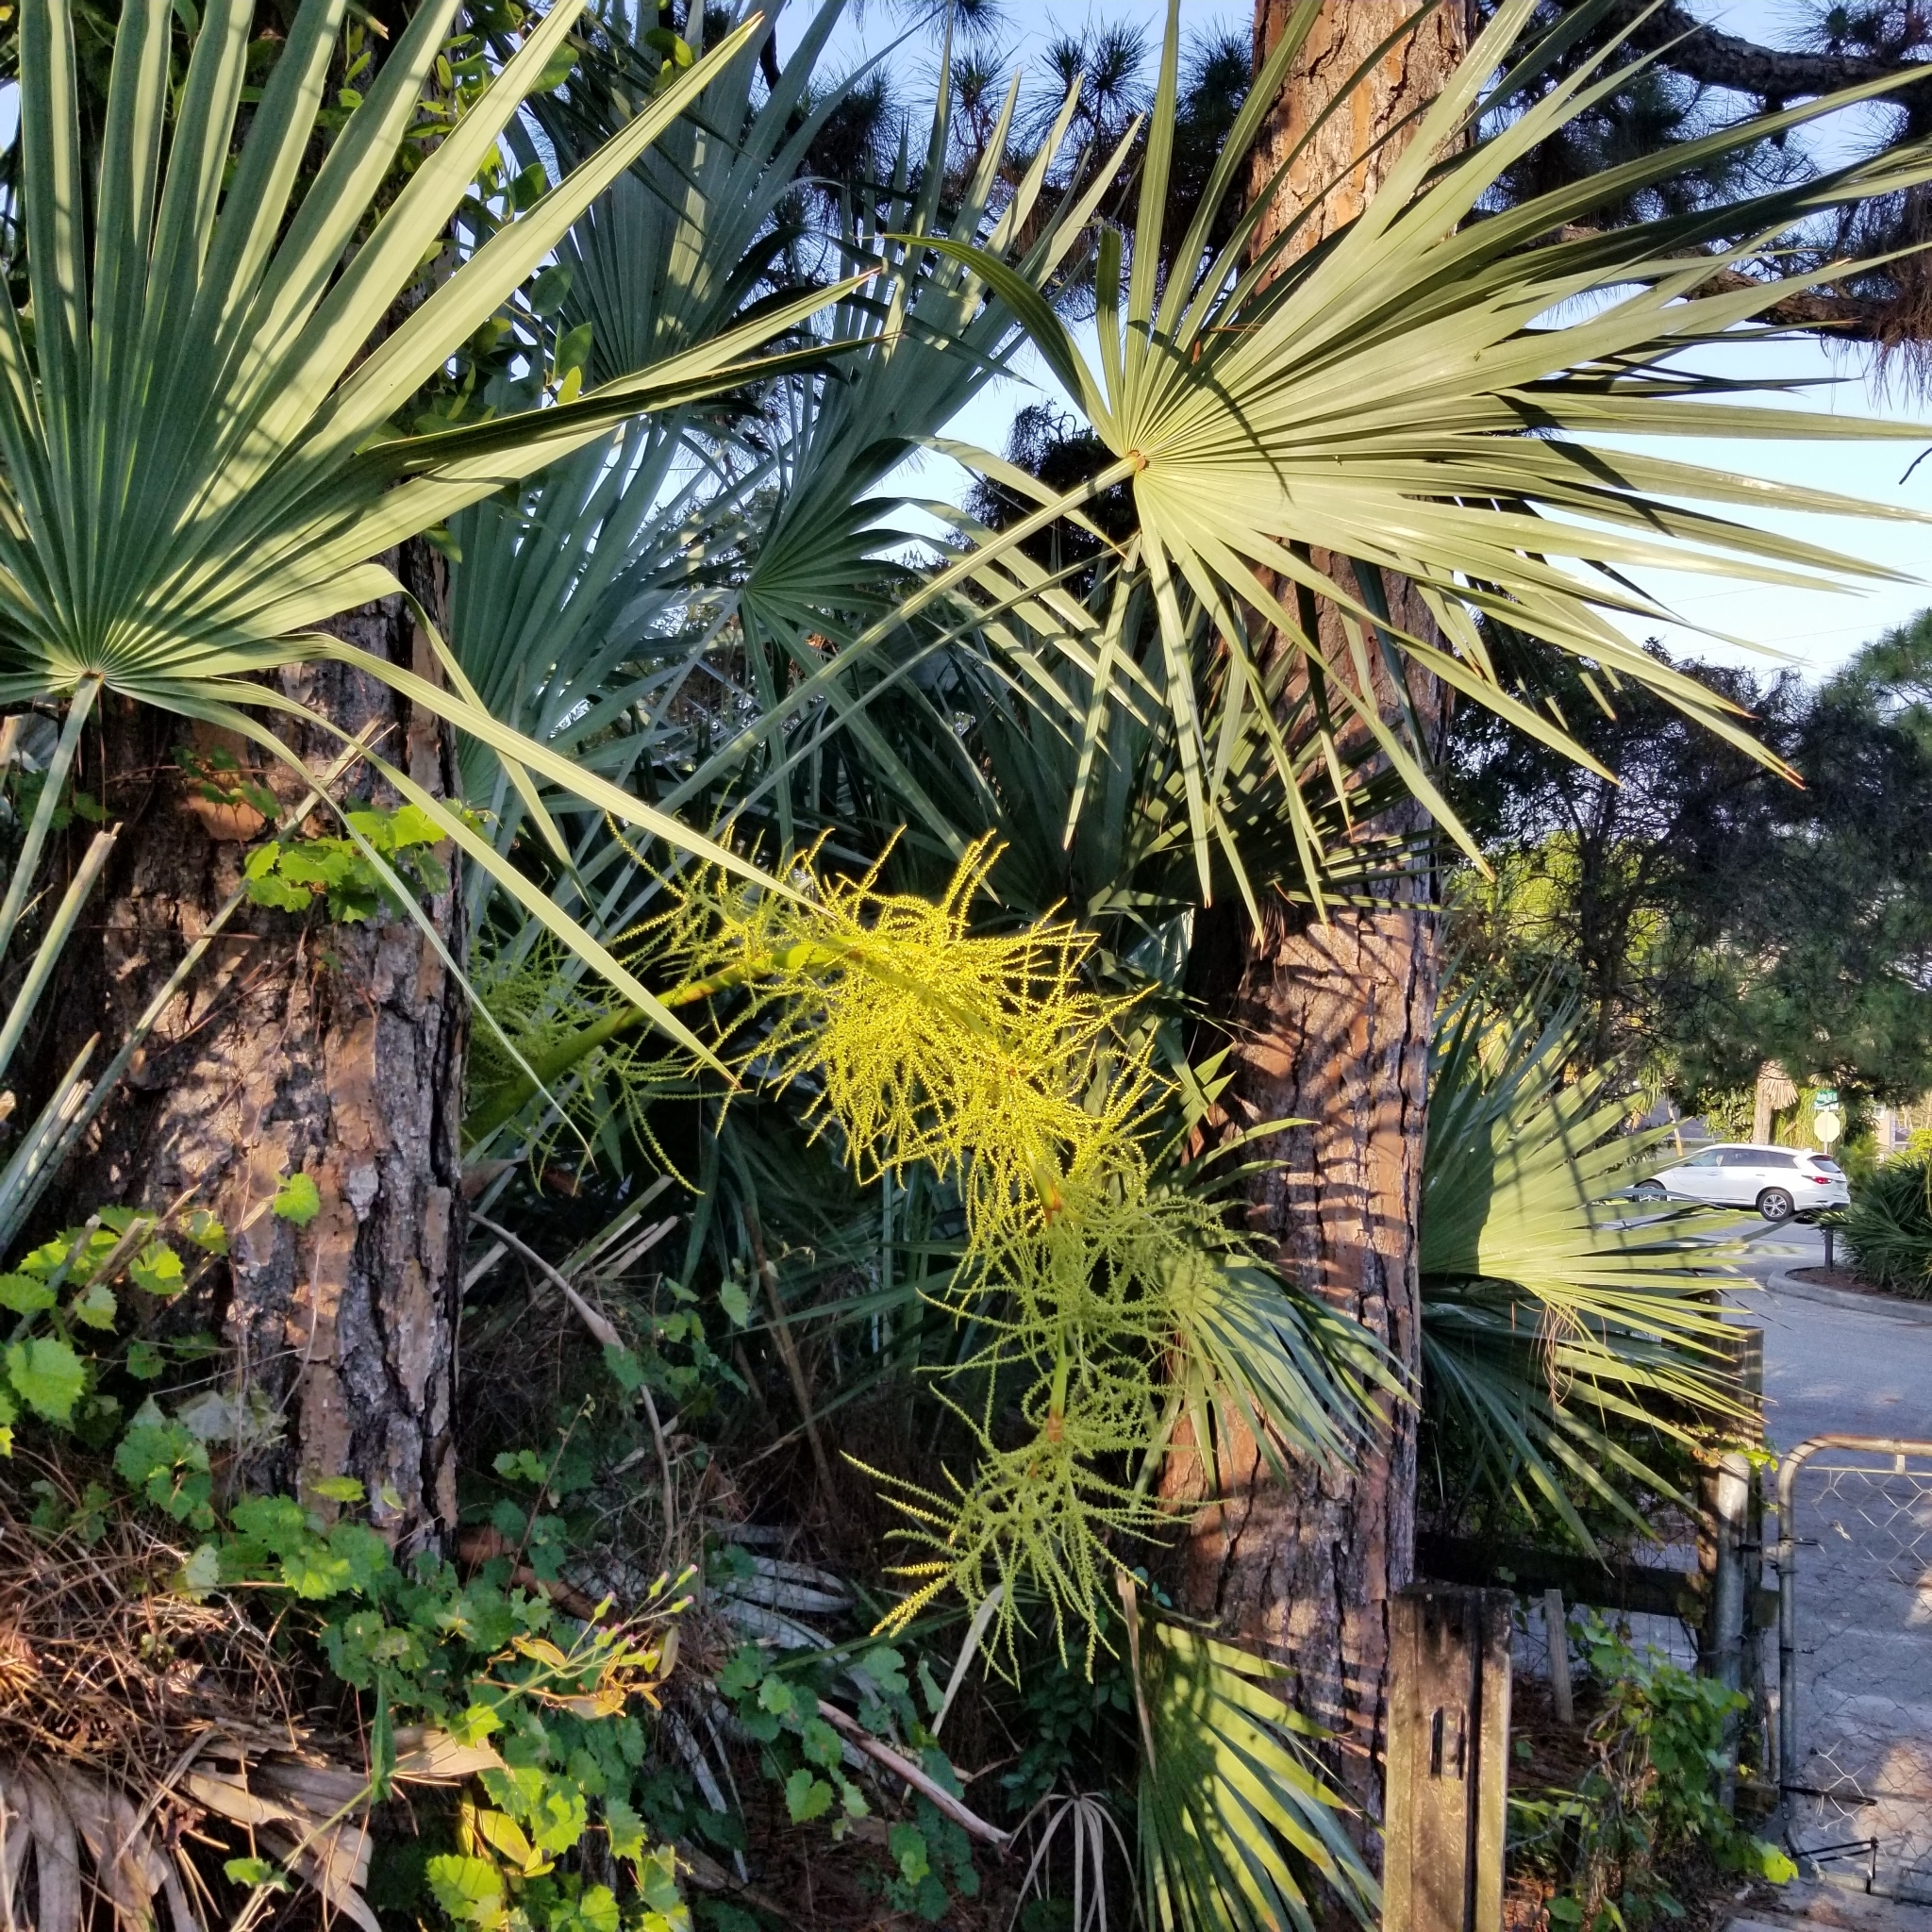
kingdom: Plantae
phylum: Tracheophyta
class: Liliopsida
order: Arecales
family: Arecaceae
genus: Serenoa
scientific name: Serenoa repens
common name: Saw-palmetto
